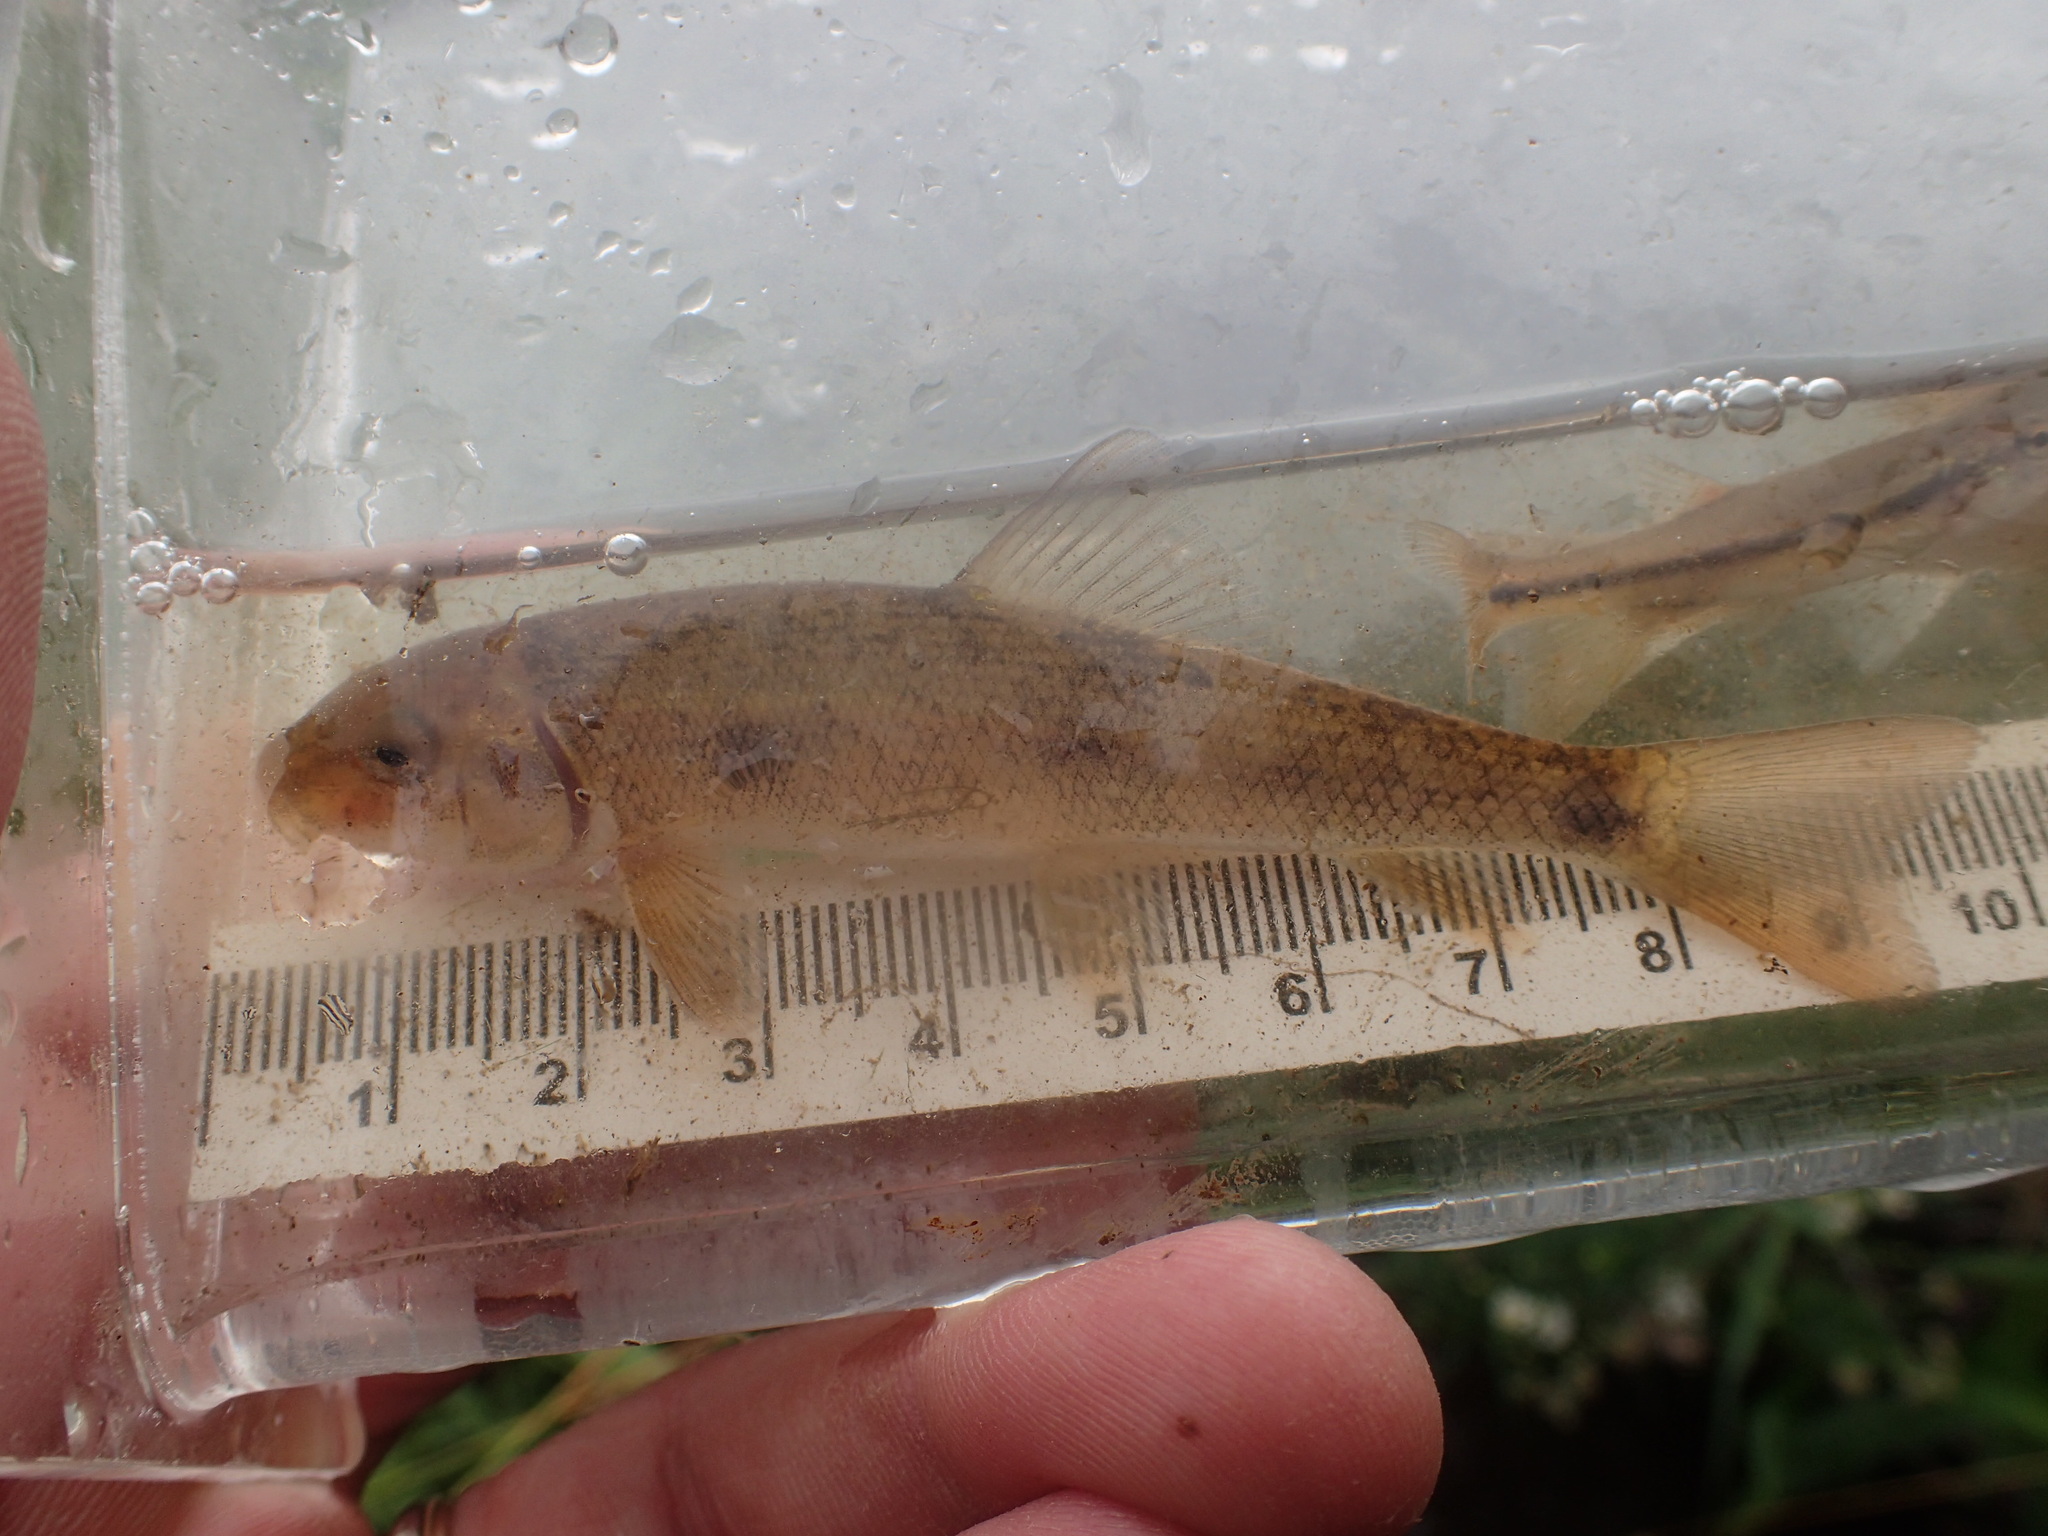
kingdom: Animalia
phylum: Chordata
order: Cypriniformes
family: Catostomidae
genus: Catostomus
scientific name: Catostomus commersonii
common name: White sucker
